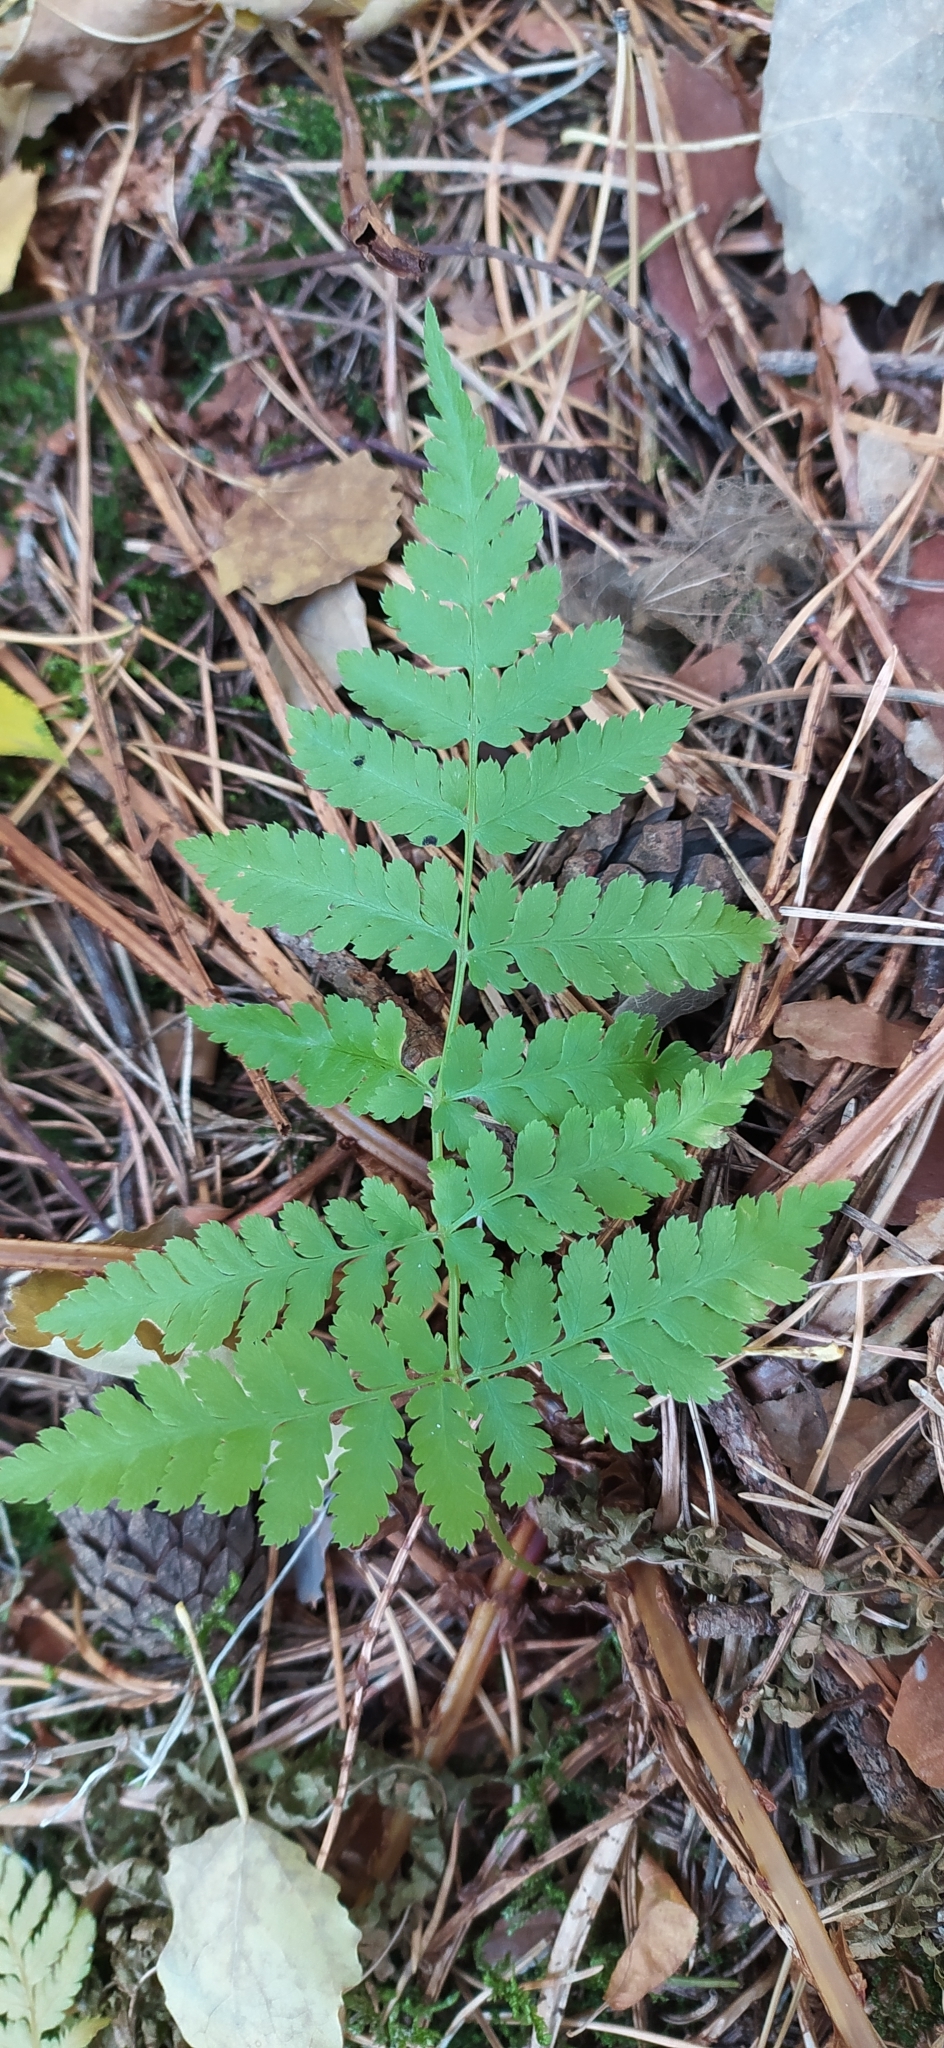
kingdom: Plantae
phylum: Tracheophyta
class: Polypodiopsida
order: Polypodiales
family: Dryopteridaceae
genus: Dryopteris
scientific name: Dryopteris carthusiana
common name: Narrow buckler-fern
